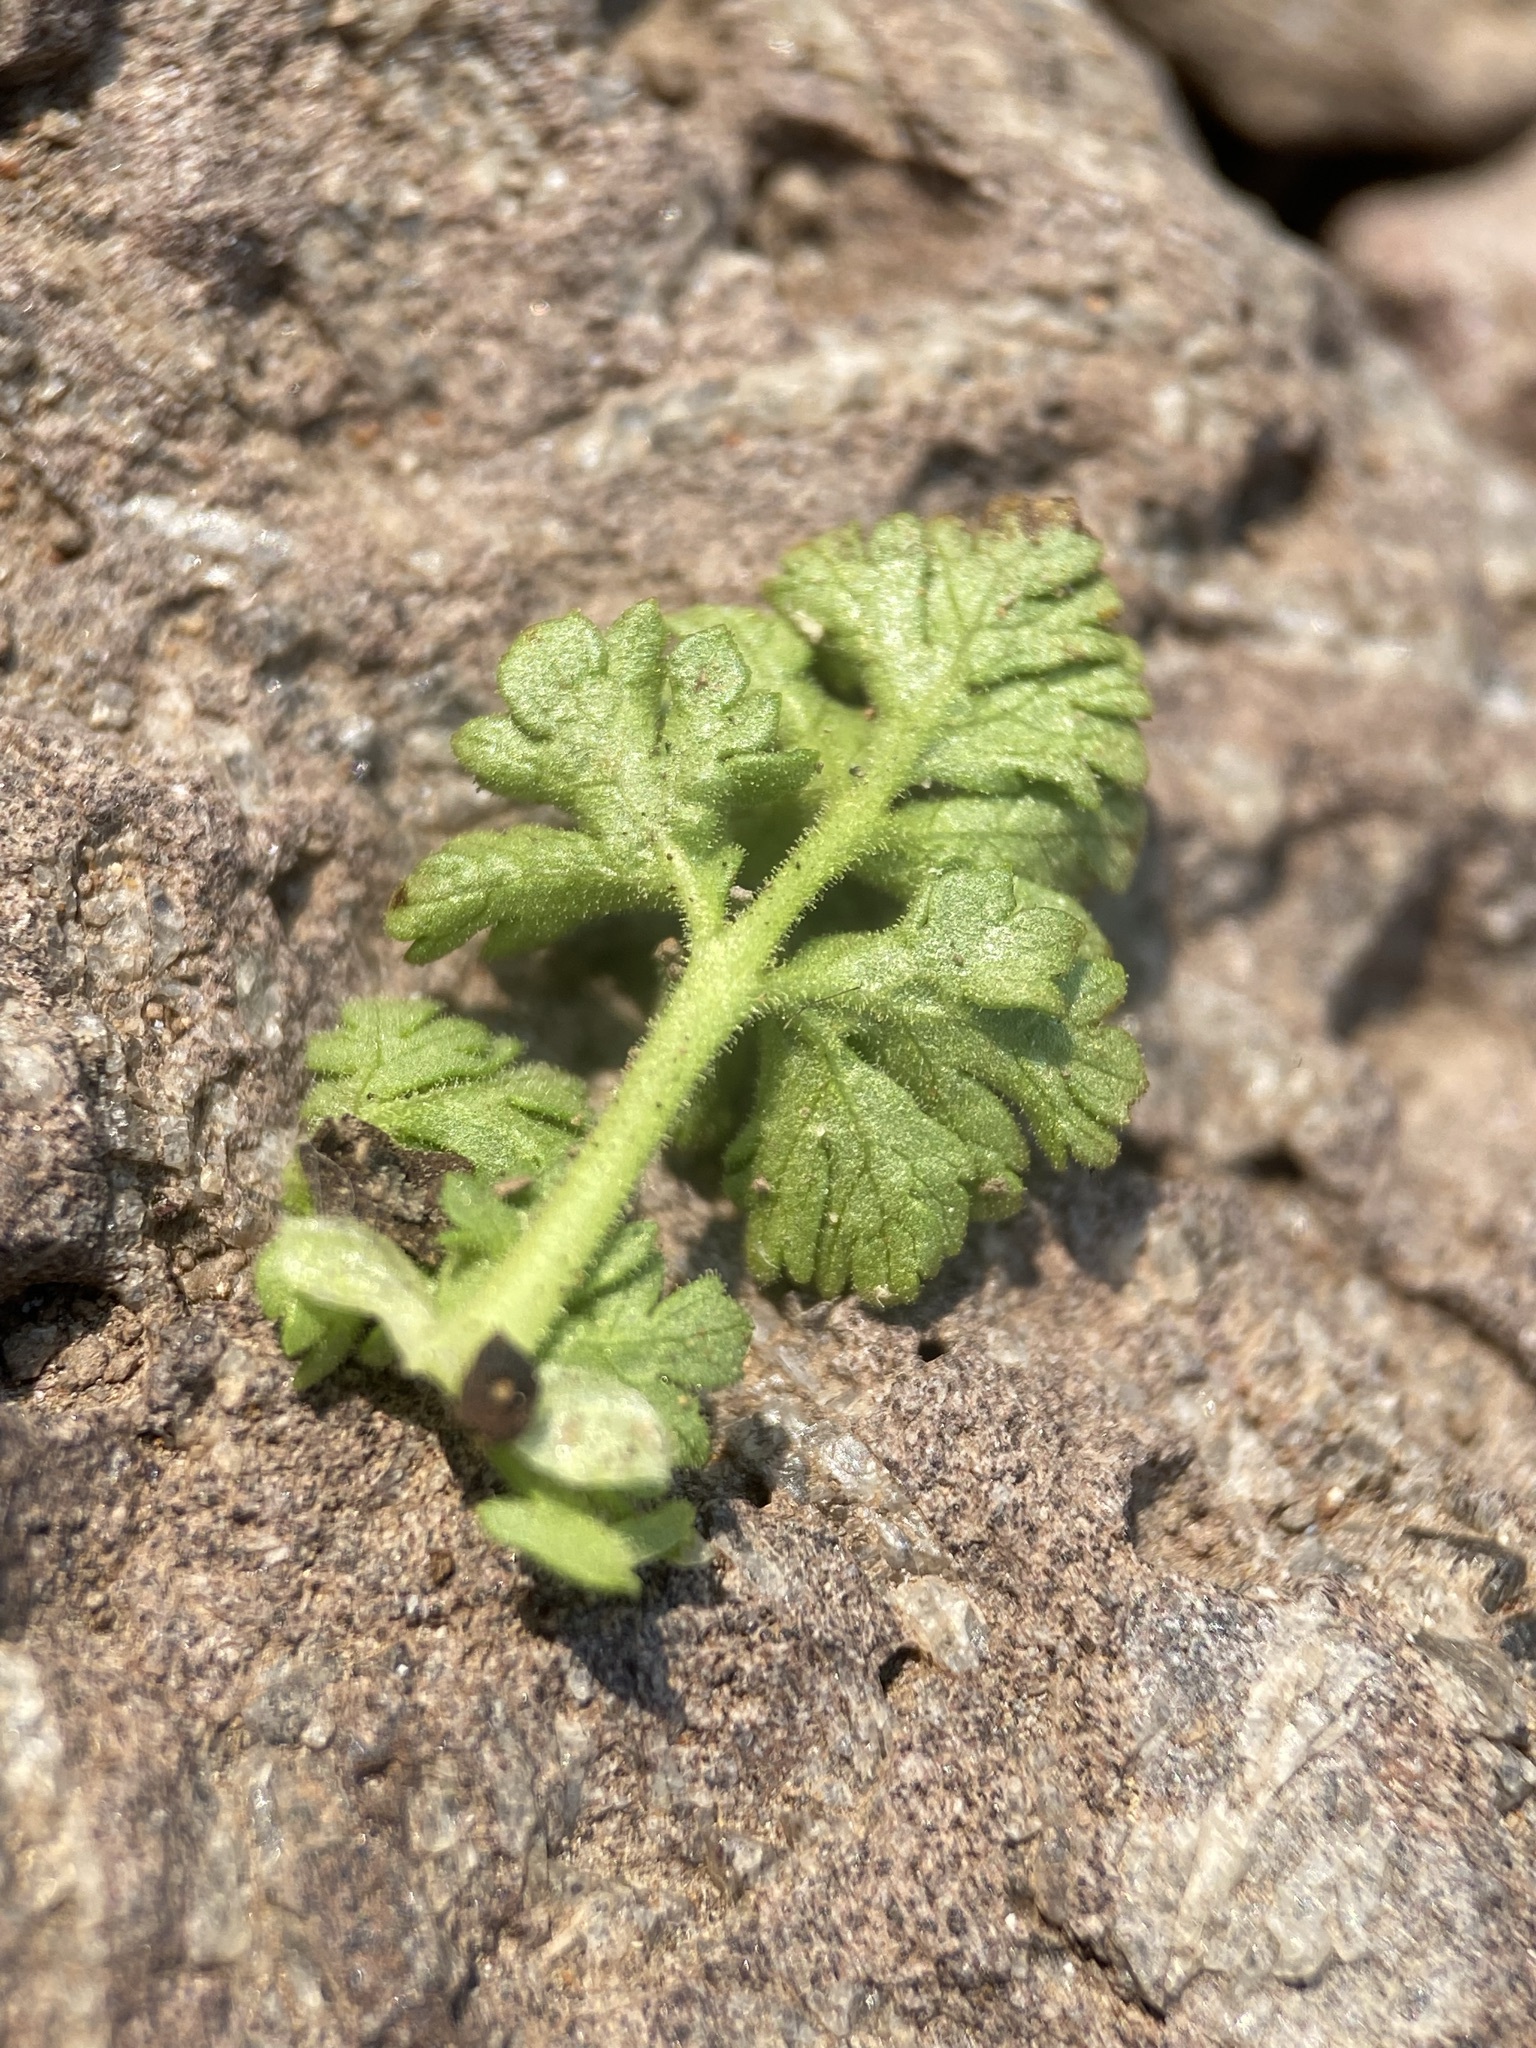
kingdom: Plantae
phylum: Tracheophyta
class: Magnoliopsida
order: Rosales
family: Rosaceae
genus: Potentilla
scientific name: Potentilla brevifolia
